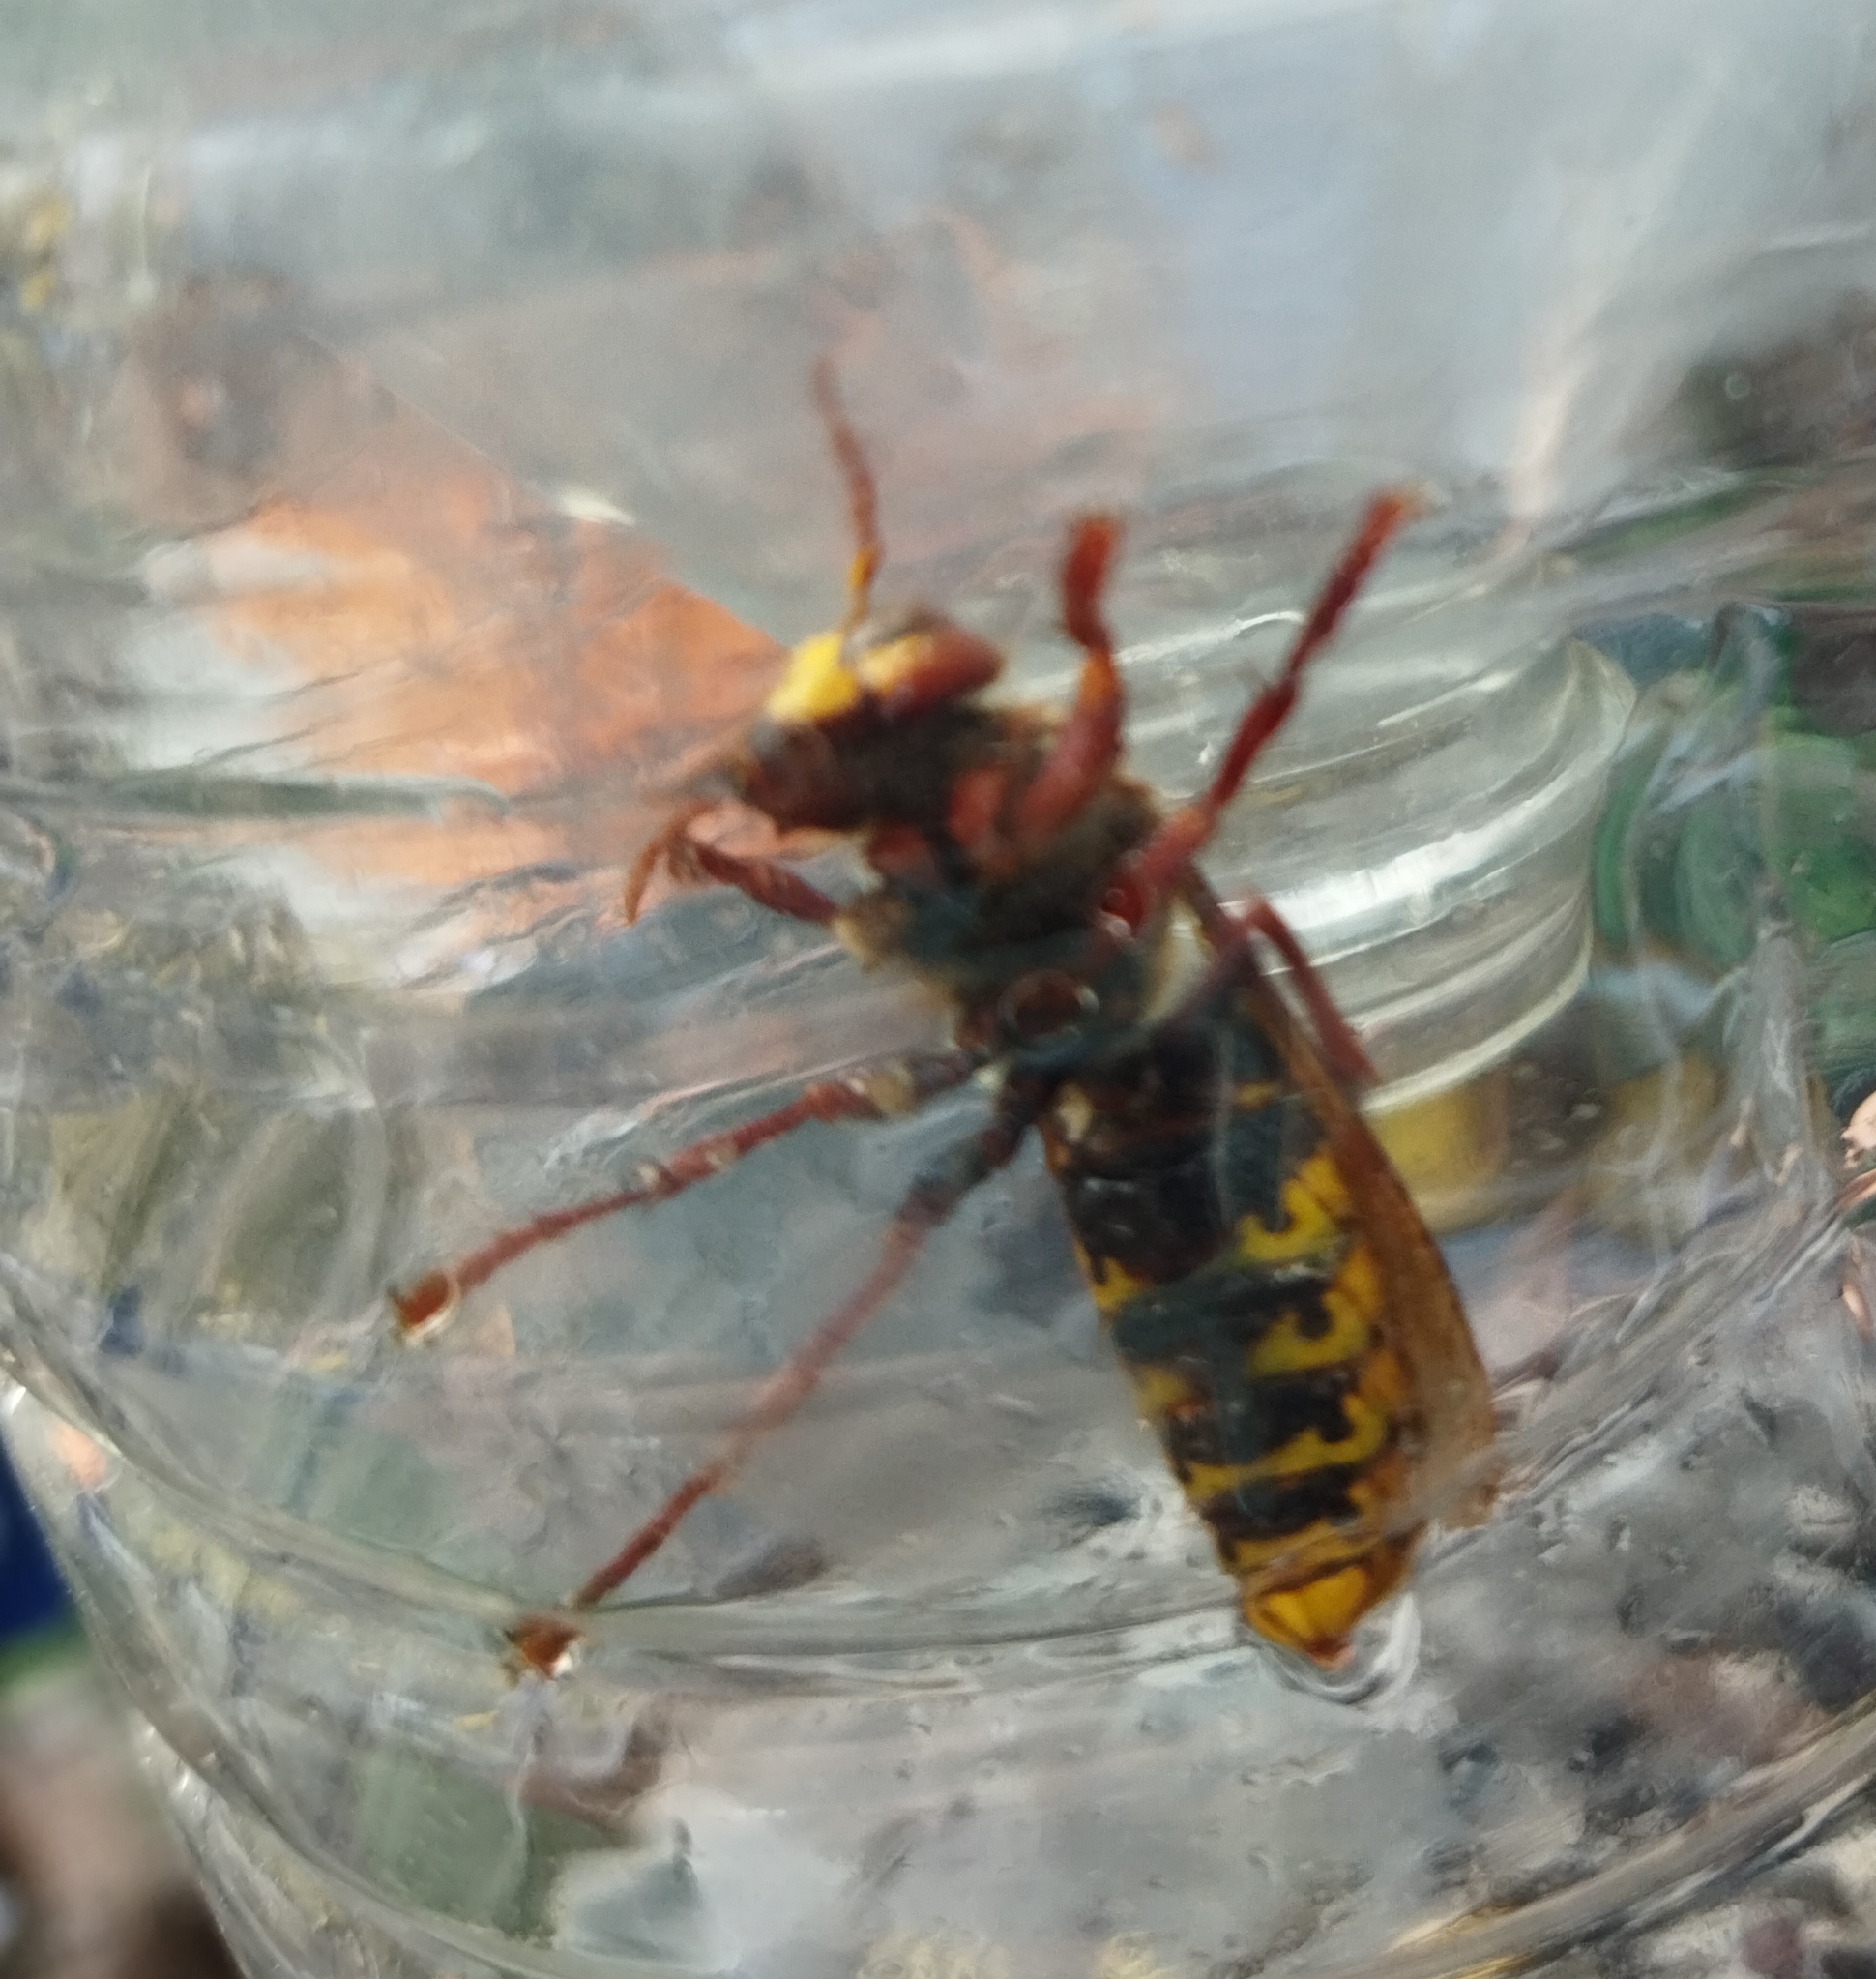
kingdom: Animalia
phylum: Arthropoda
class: Insecta
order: Hymenoptera
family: Vespidae
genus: Vespa
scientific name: Vespa crabro
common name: Hornet
